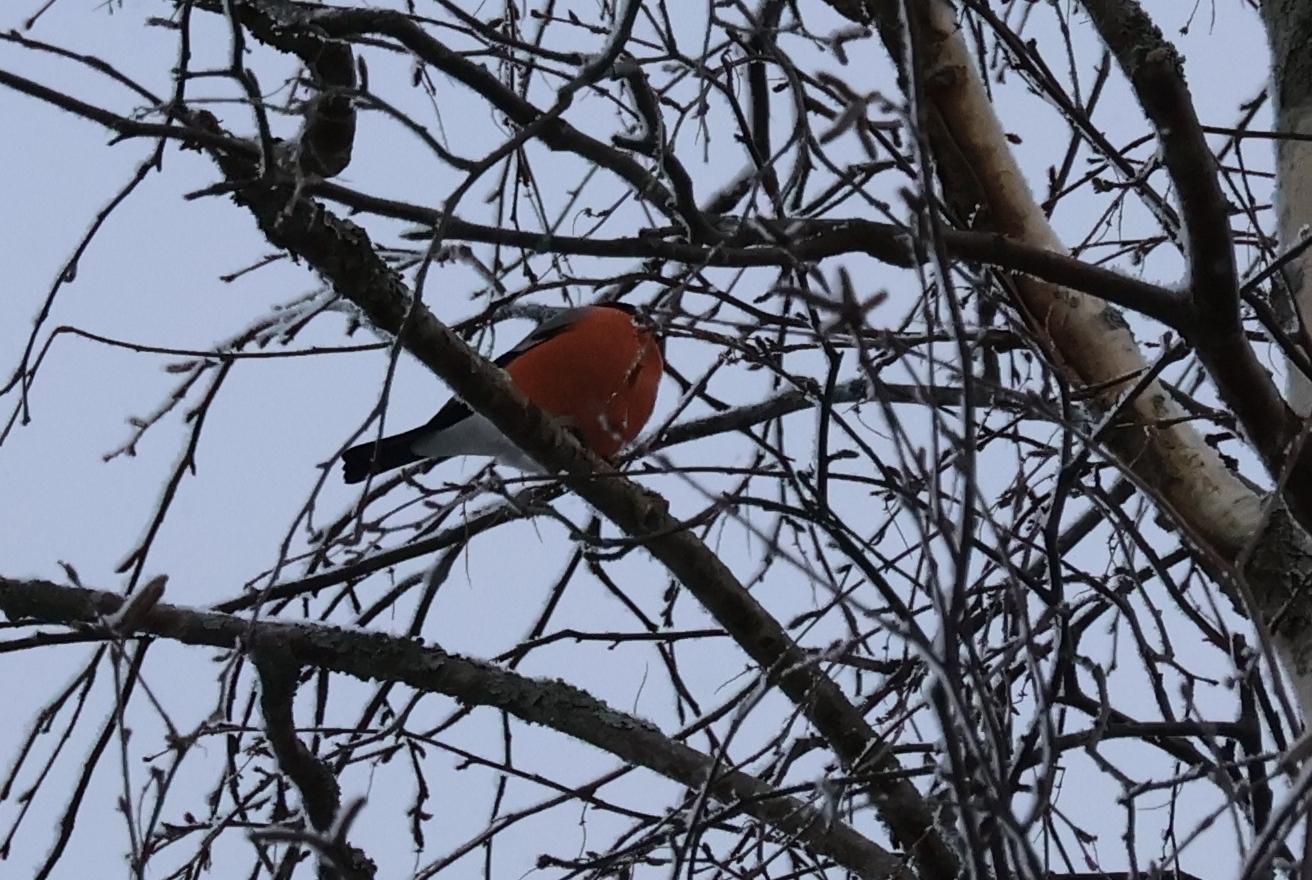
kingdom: Animalia
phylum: Chordata
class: Aves
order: Passeriformes
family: Fringillidae
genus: Pyrrhula
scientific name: Pyrrhula pyrrhula
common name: Eurasian bullfinch
